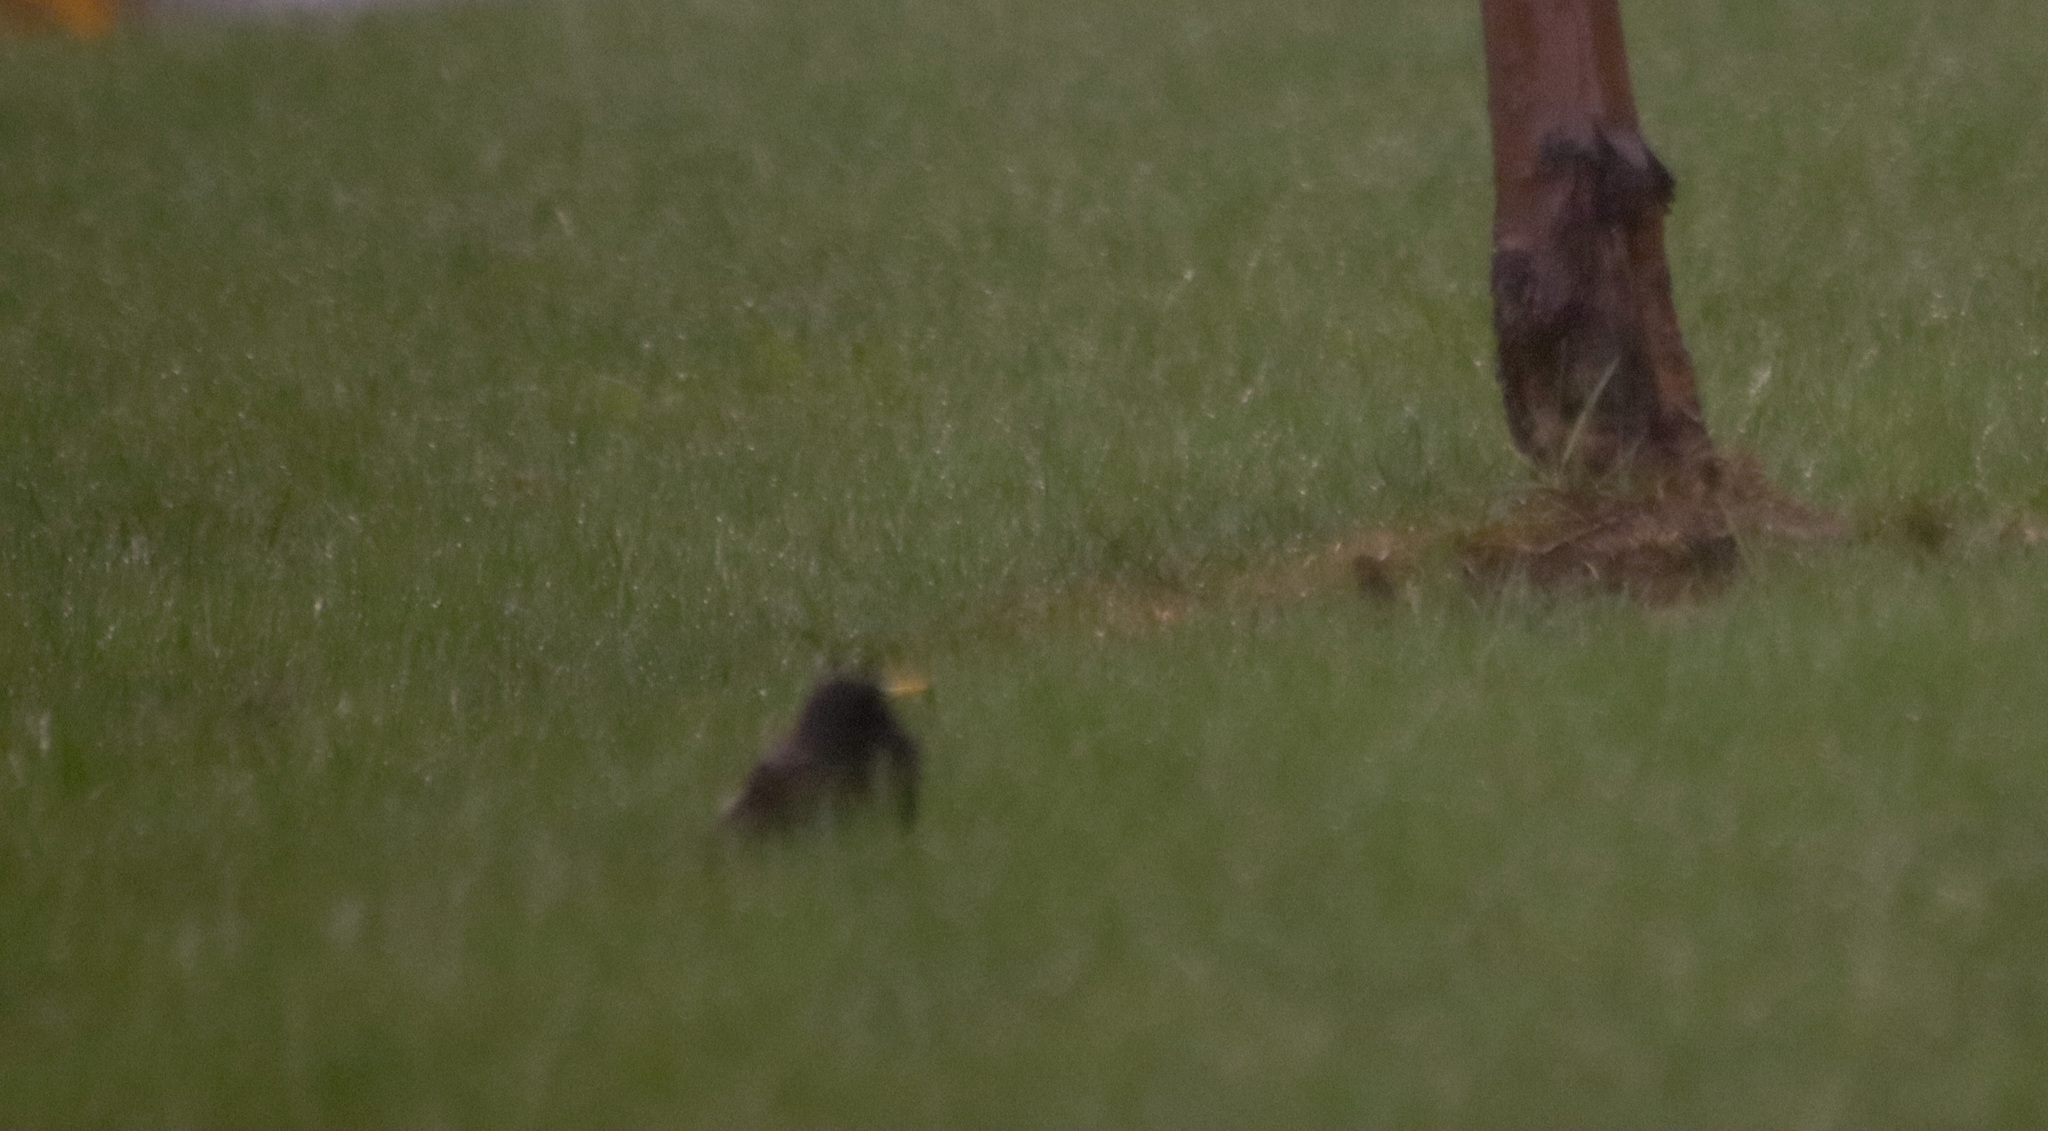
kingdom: Animalia
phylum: Chordata
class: Aves
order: Passeriformes
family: Sturnidae
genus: Sturnus
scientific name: Sturnus vulgaris
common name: Common starling
